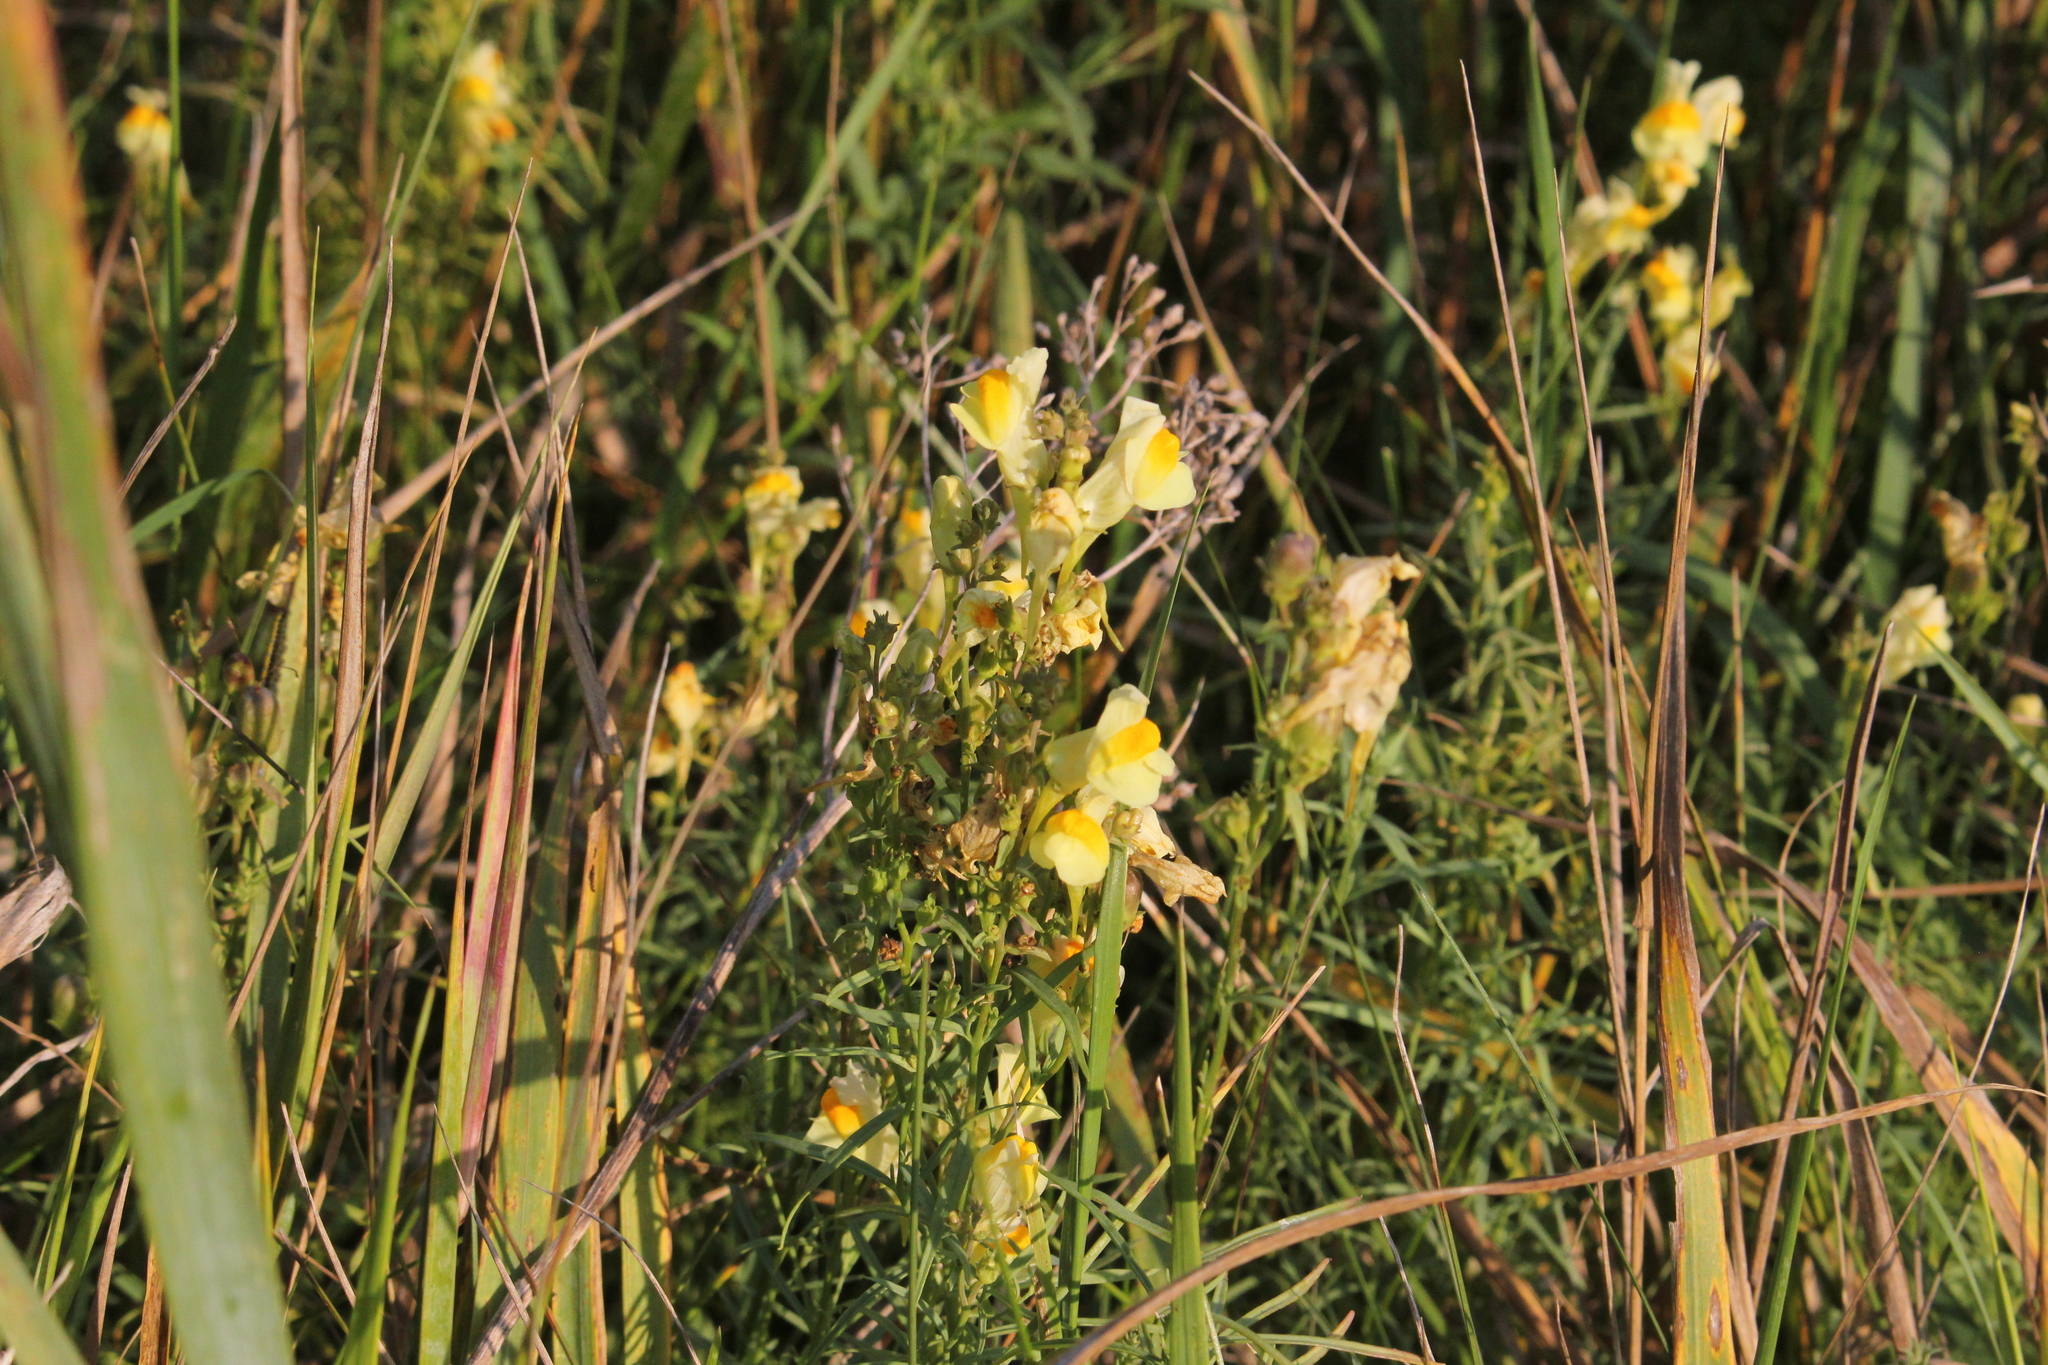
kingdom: Plantae
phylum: Tracheophyta
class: Magnoliopsida
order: Lamiales
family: Plantaginaceae
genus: Linaria
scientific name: Linaria vulgaris
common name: Butter and eggs
